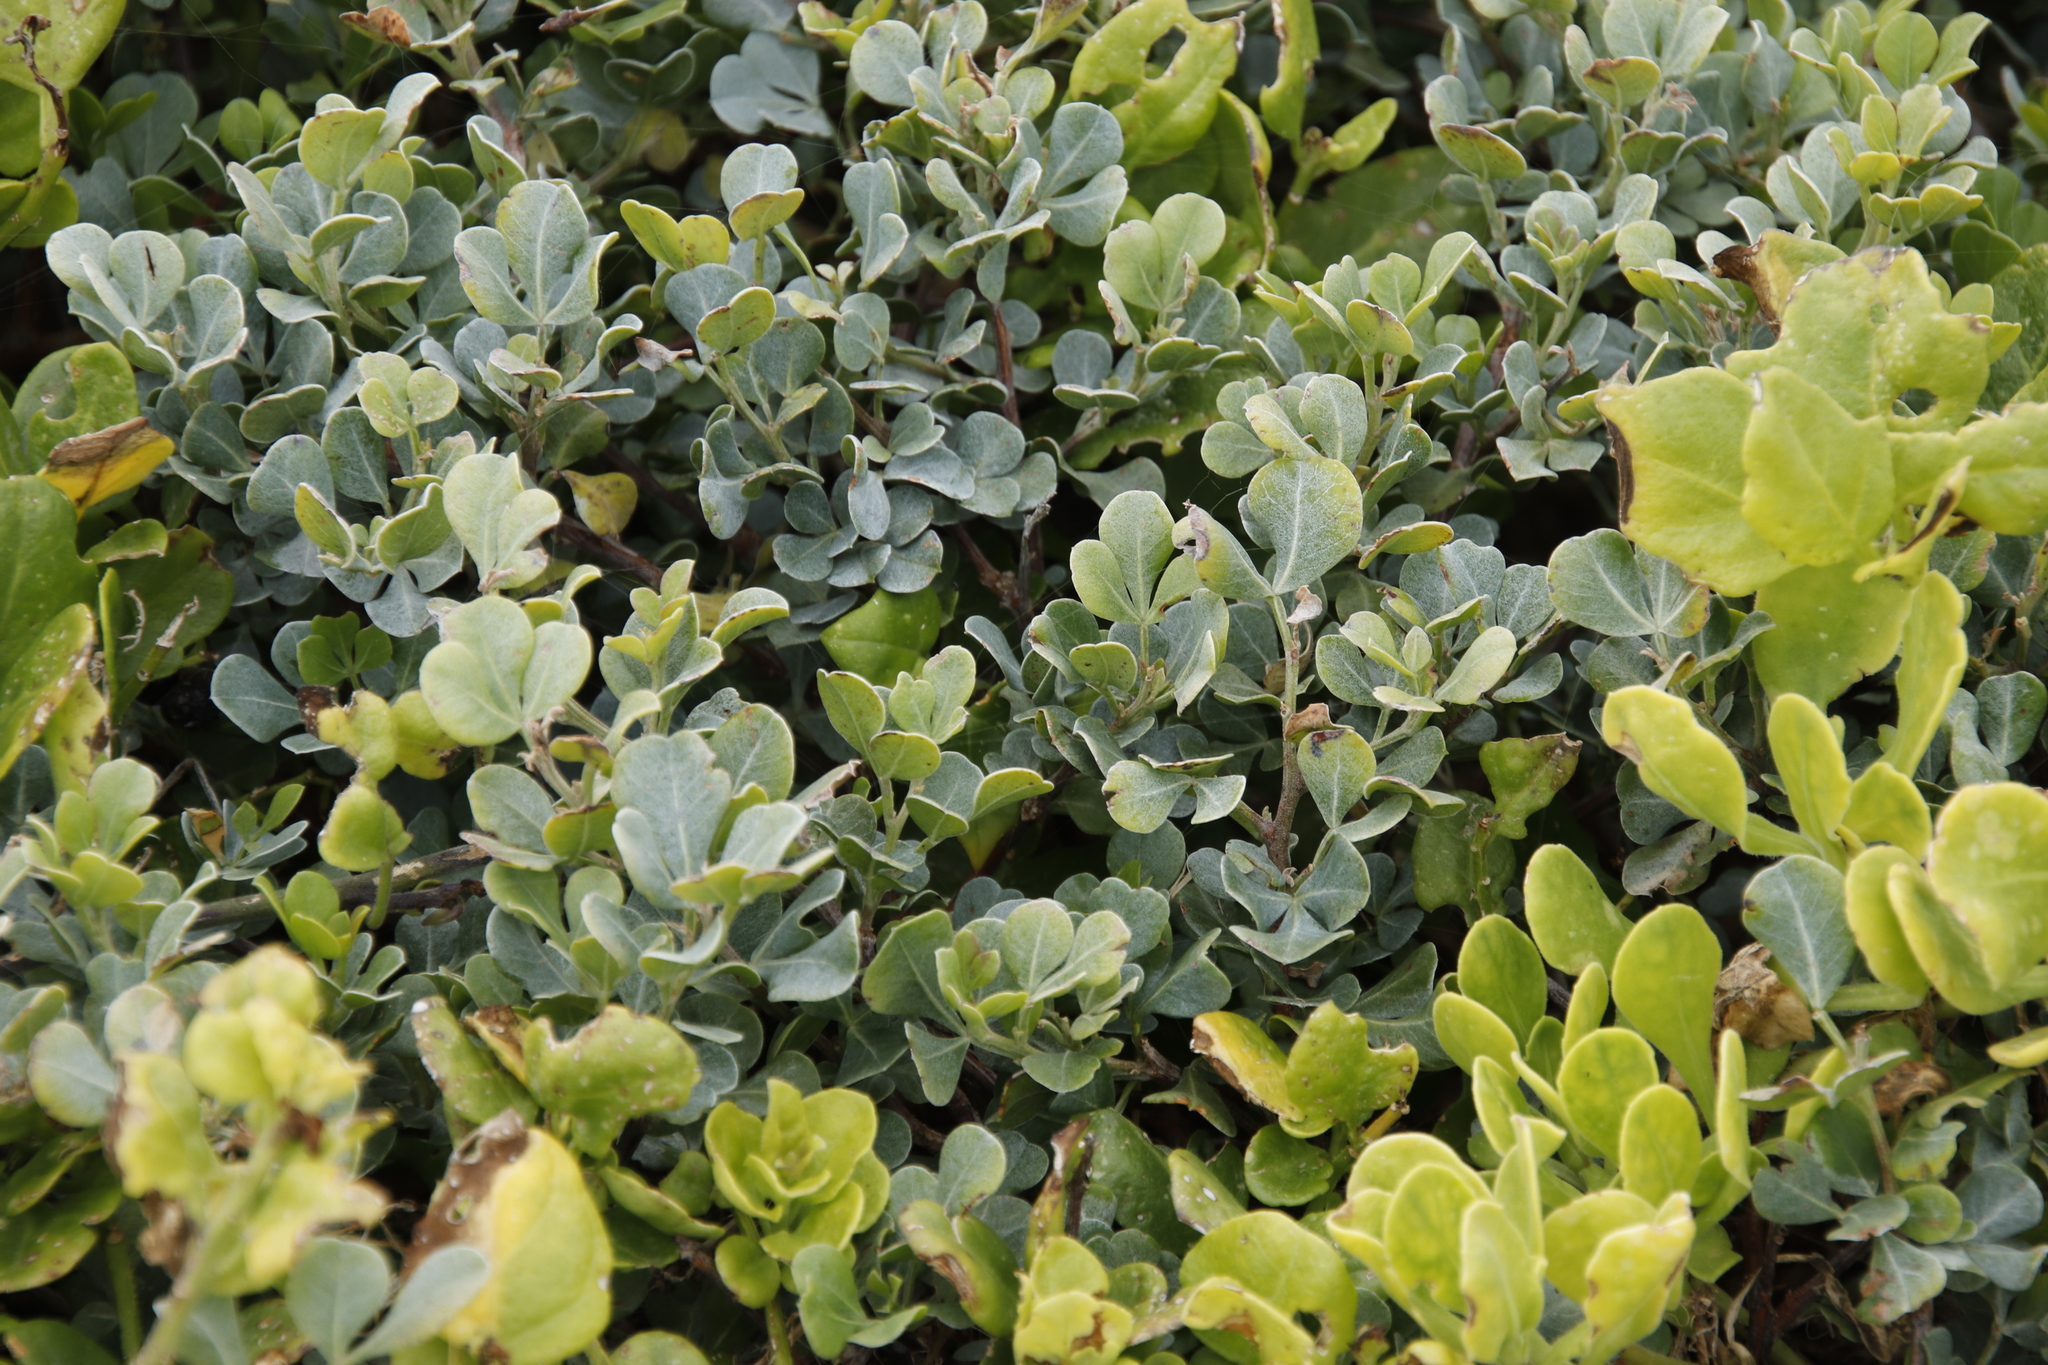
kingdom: Plantae
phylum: Tracheophyta
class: Magnoliopsida
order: Sapindales
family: Anacardiaceae
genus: Searsia
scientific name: Searsia glauca
